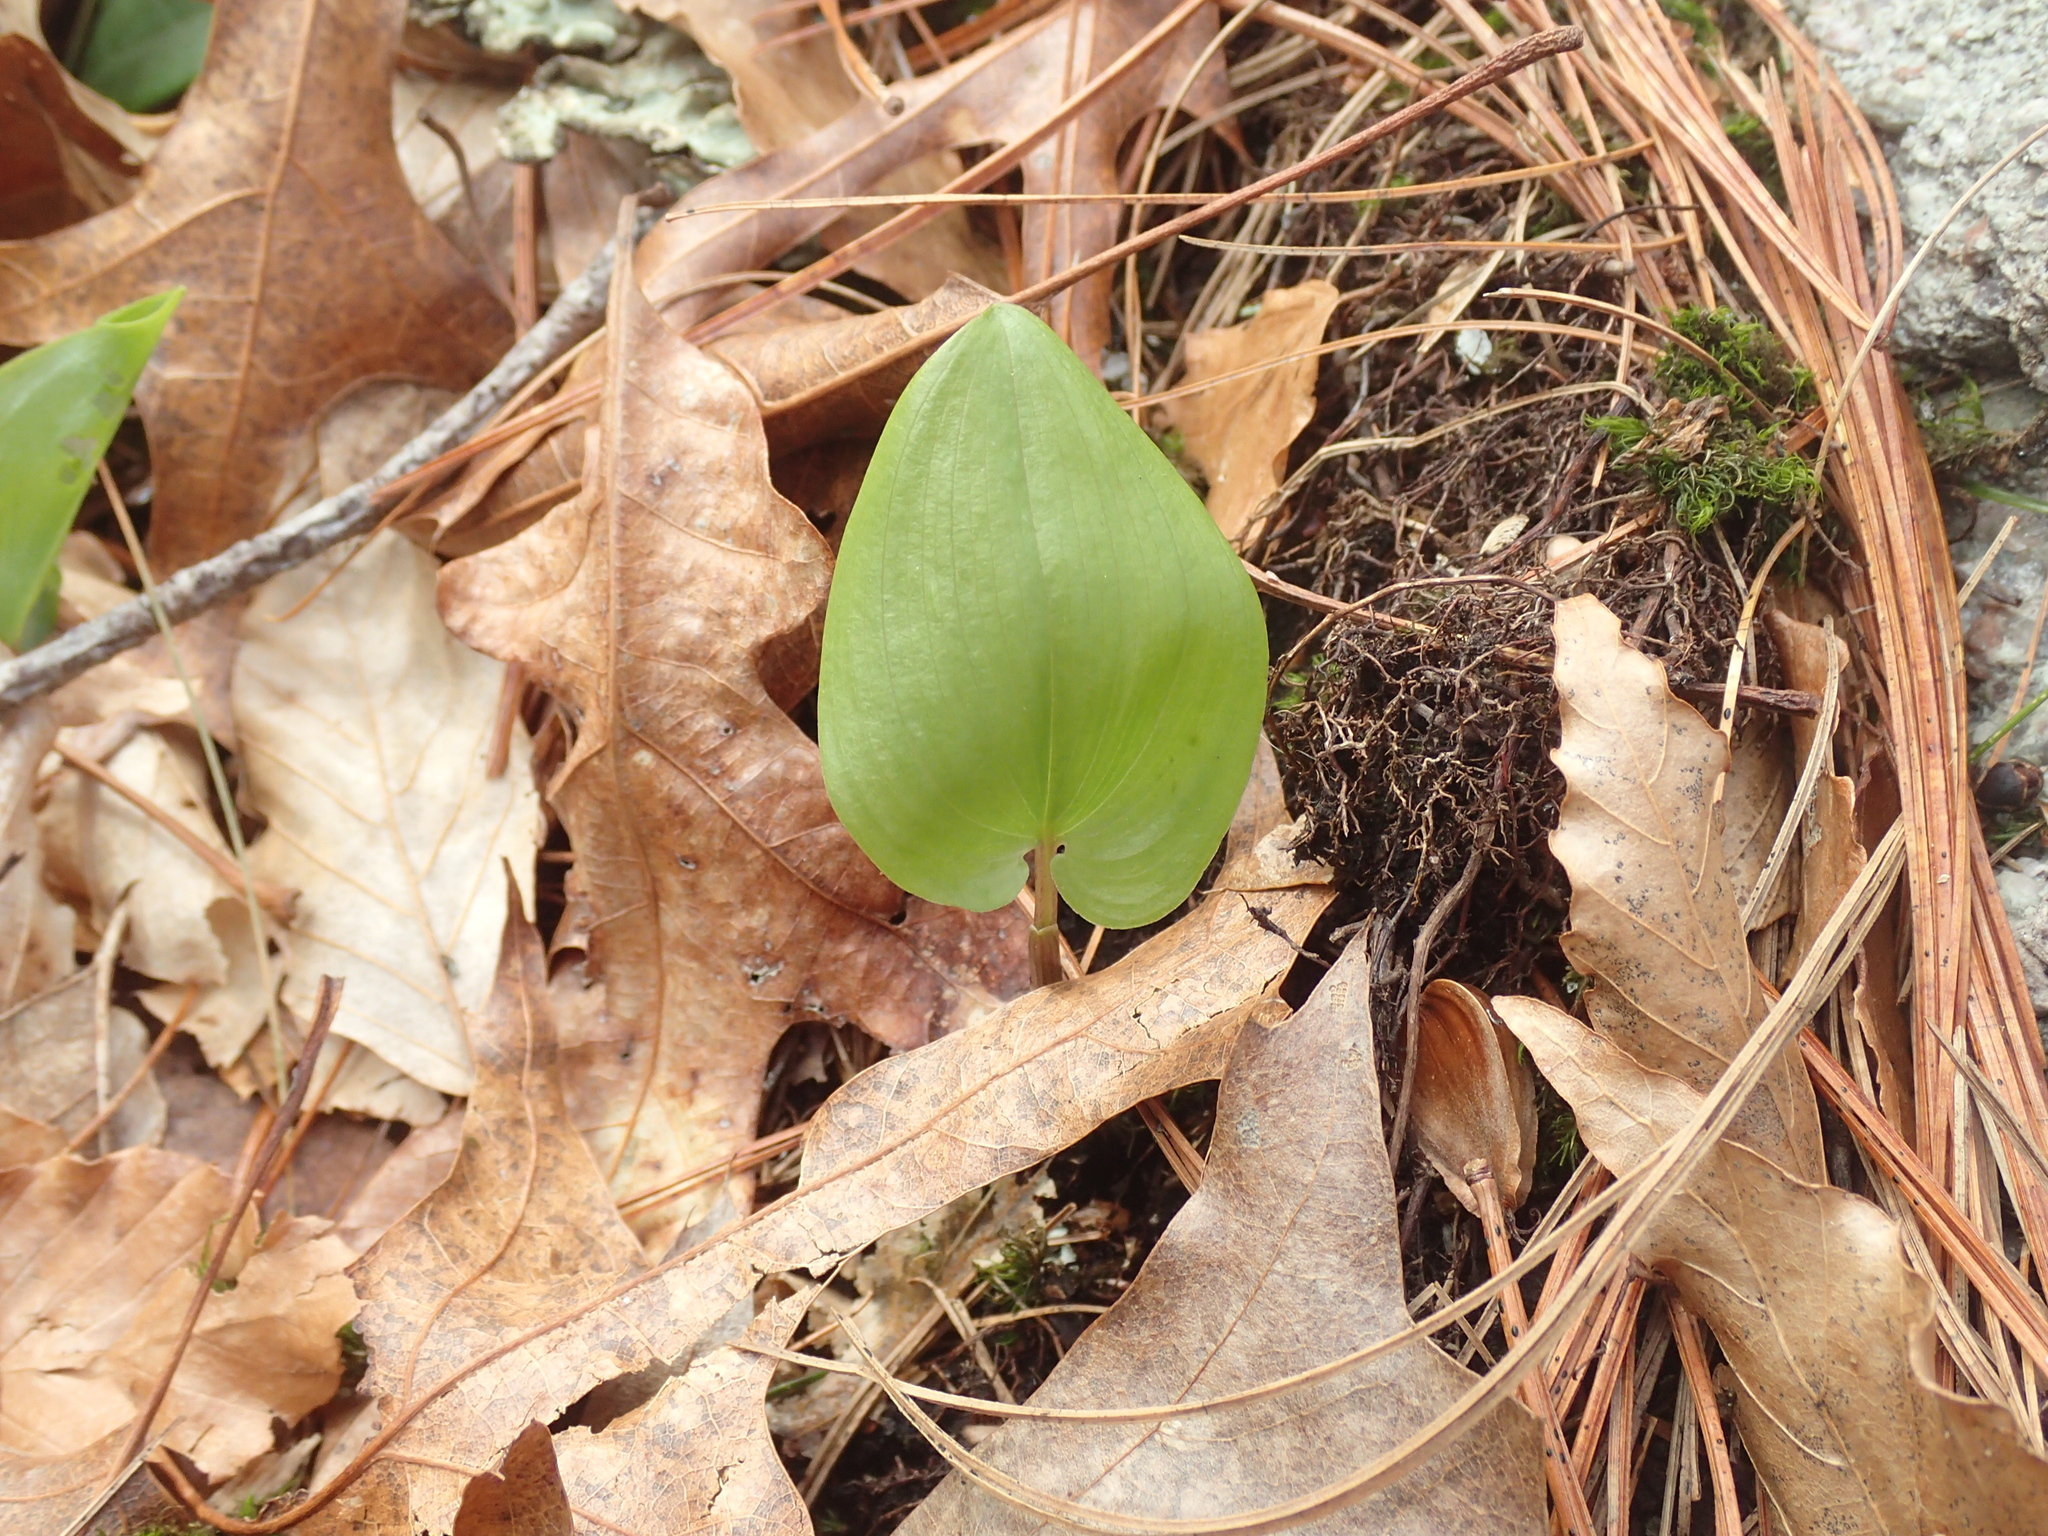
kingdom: Plantae
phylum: Tracheophyta
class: Liliopsida
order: Asparagales
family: Asparagaceae
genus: Maianthemum
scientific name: Maianthemum canadense
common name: False lily-of-the-valley
